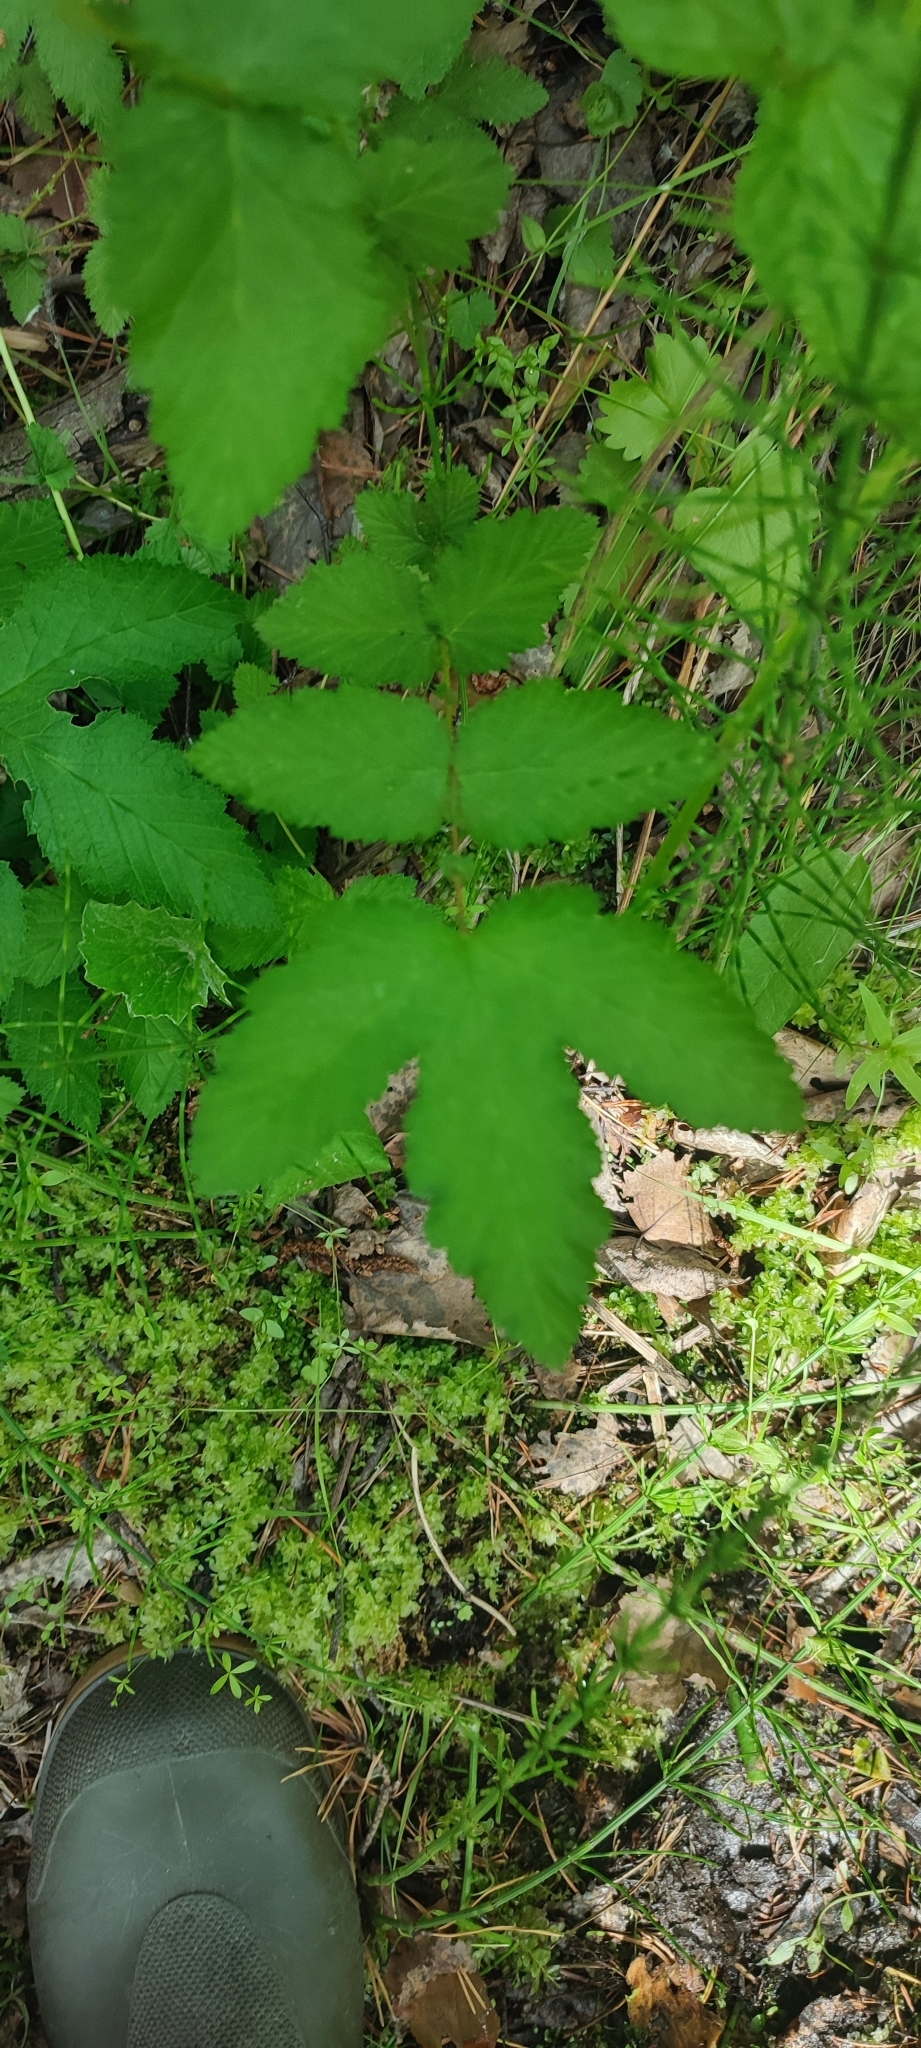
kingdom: Plantae
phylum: Tracheophyta
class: Magnoliopsida
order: Rosales
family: Rosaceae
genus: Filipendula
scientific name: Filipendula ulmaria
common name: Meadowsweet
